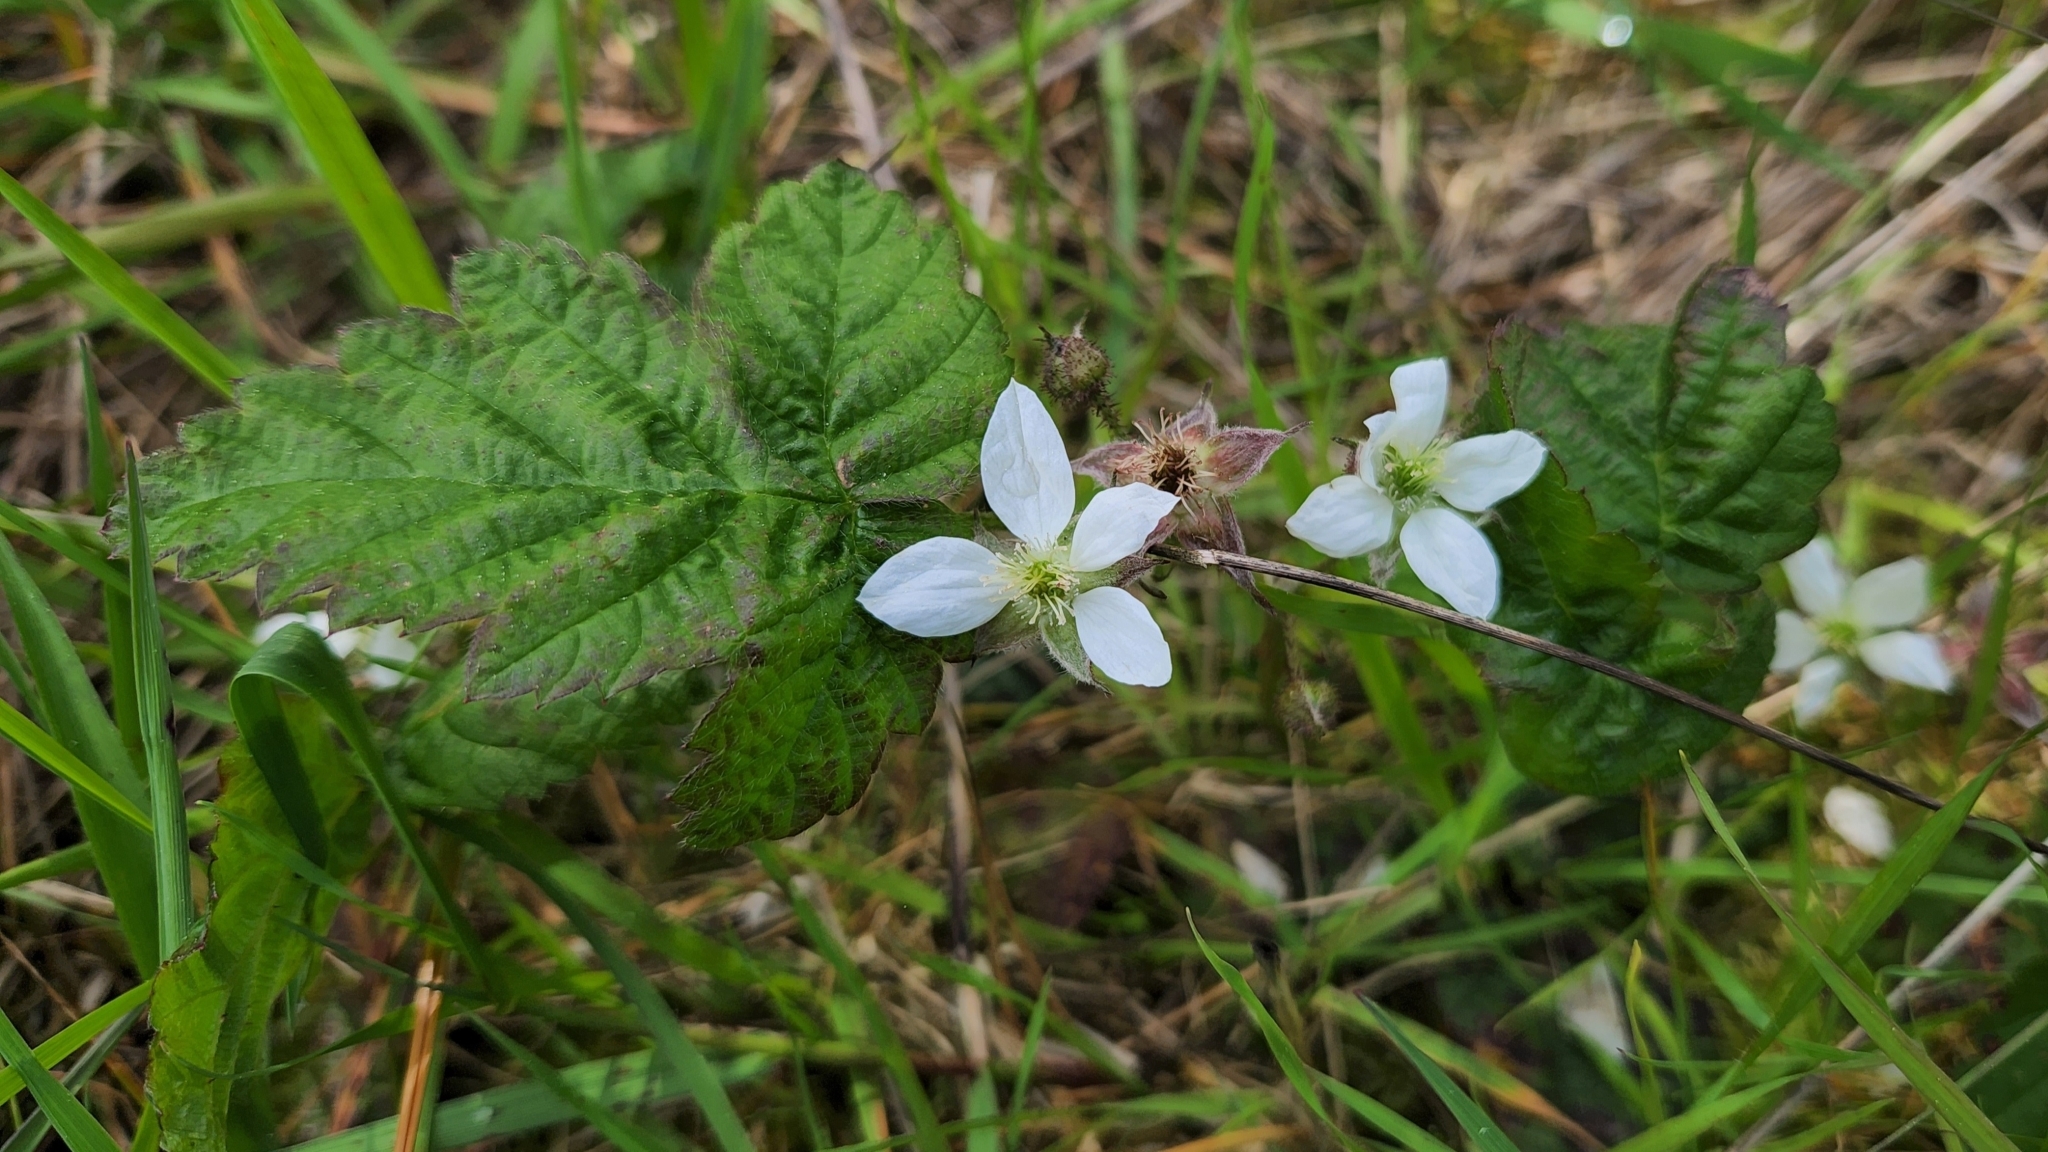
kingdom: Plantae
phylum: Tracheophyta
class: Magnoliopsida
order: Rosales
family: Rosaceae
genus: Rubus
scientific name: Rubus ursinus
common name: Pacific blackberry
